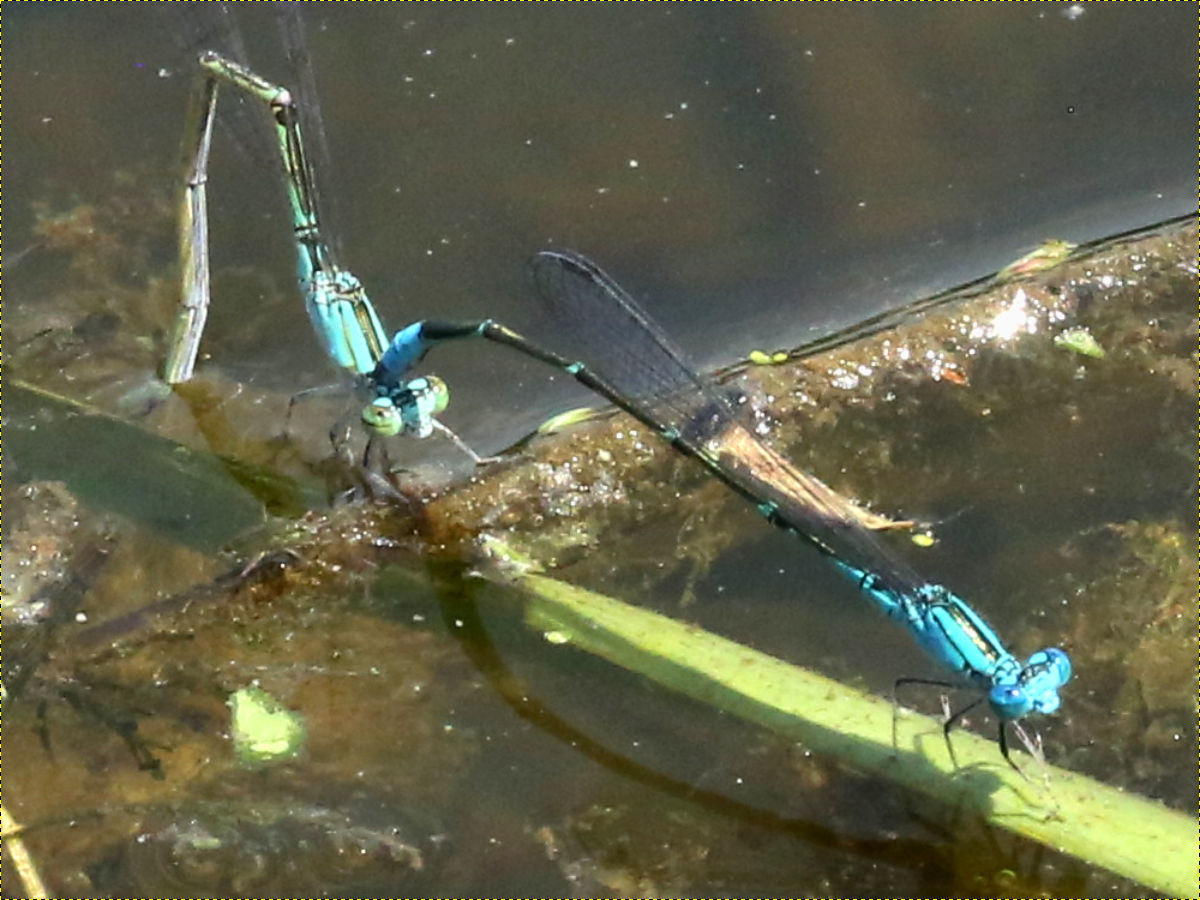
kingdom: Animalia
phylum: Arthropoda
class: Insecta
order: Odonata
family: Coenagrionidae
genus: Enallagma
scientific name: Enallagma geminatum
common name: Skimming bluet
